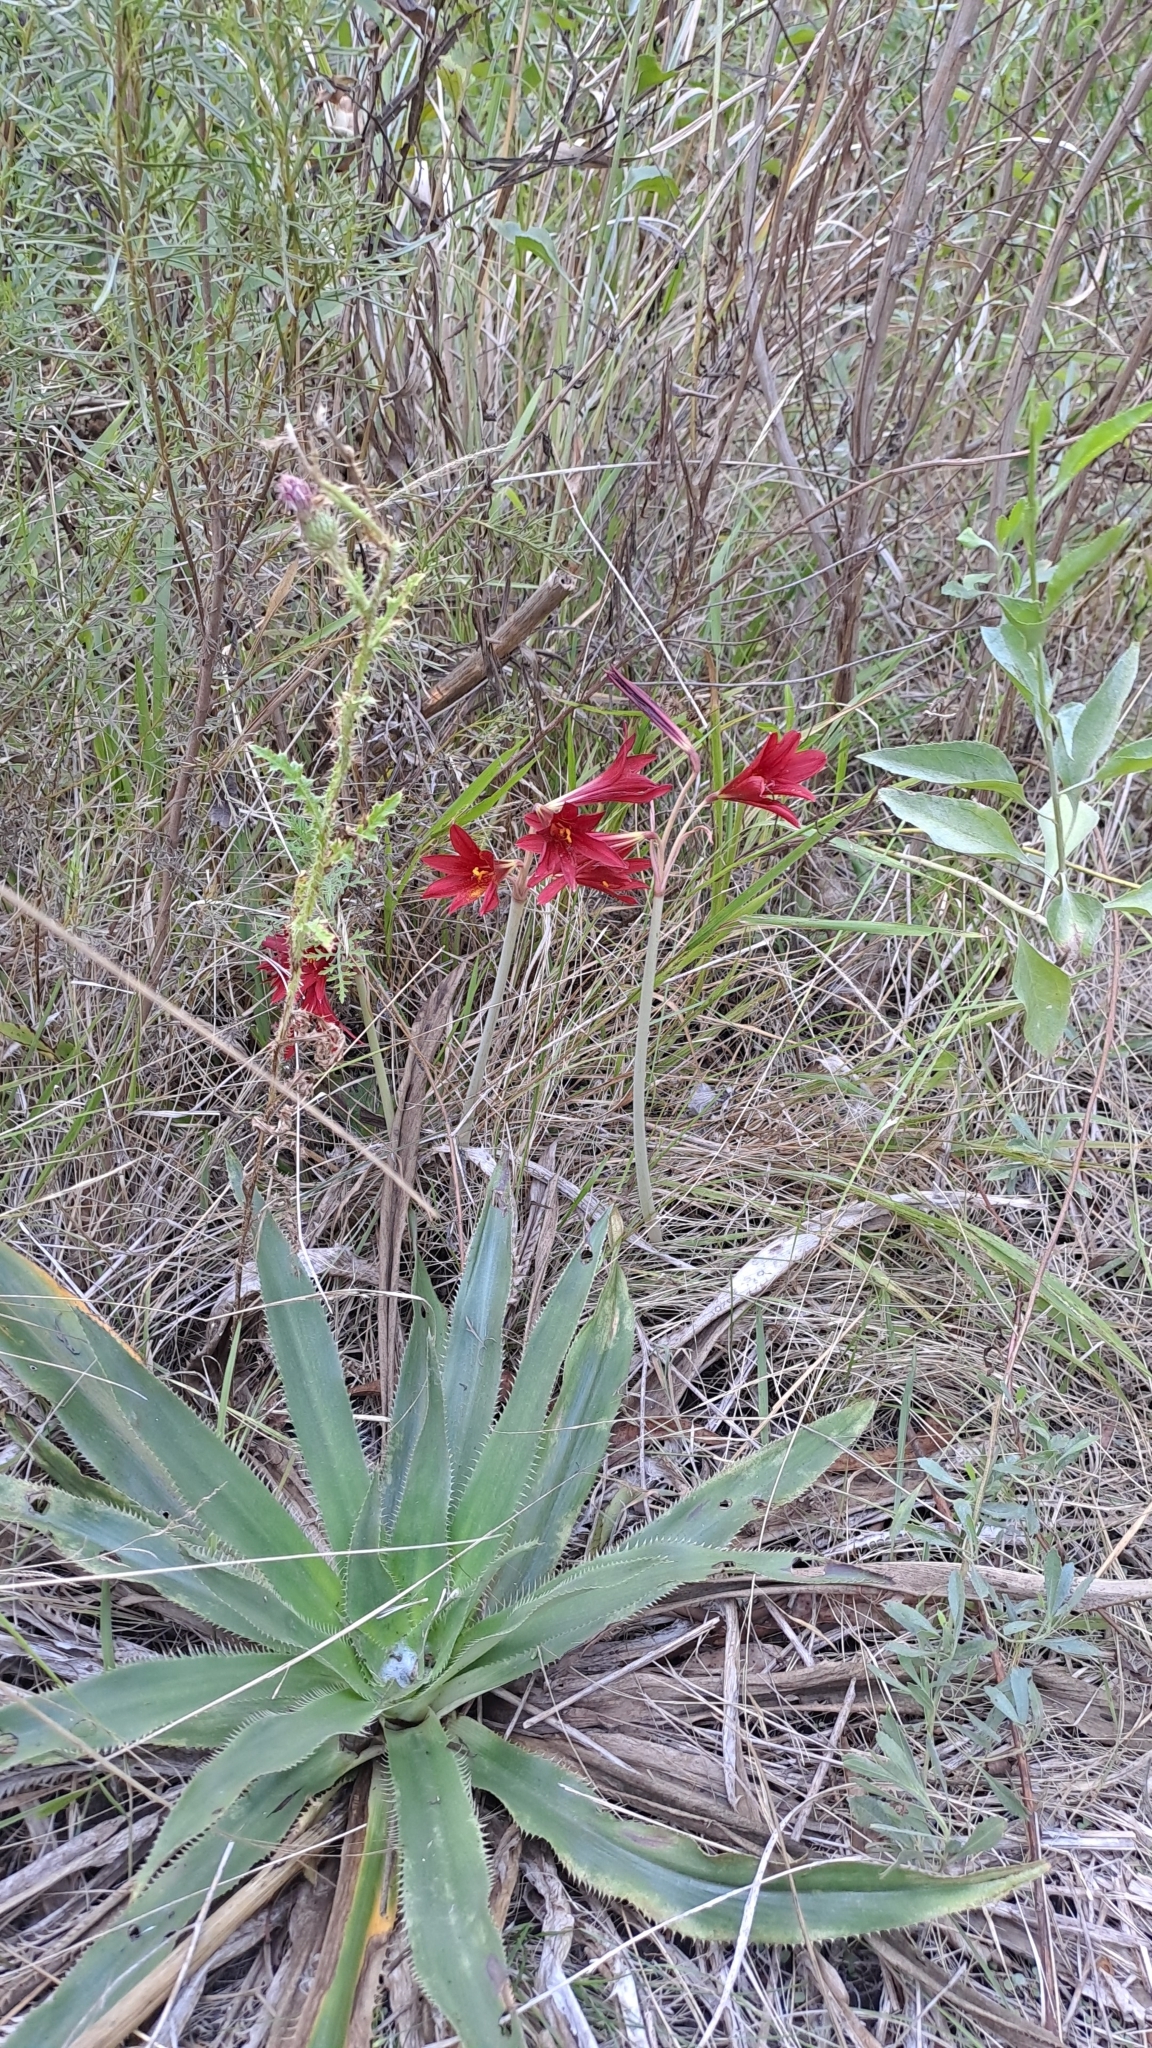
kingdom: Plantae
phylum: Tracheophyta
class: Liliopsida
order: Asparagales
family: Amaryllidaceae
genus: Zephyranthes
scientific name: Zephyranthes bifida
